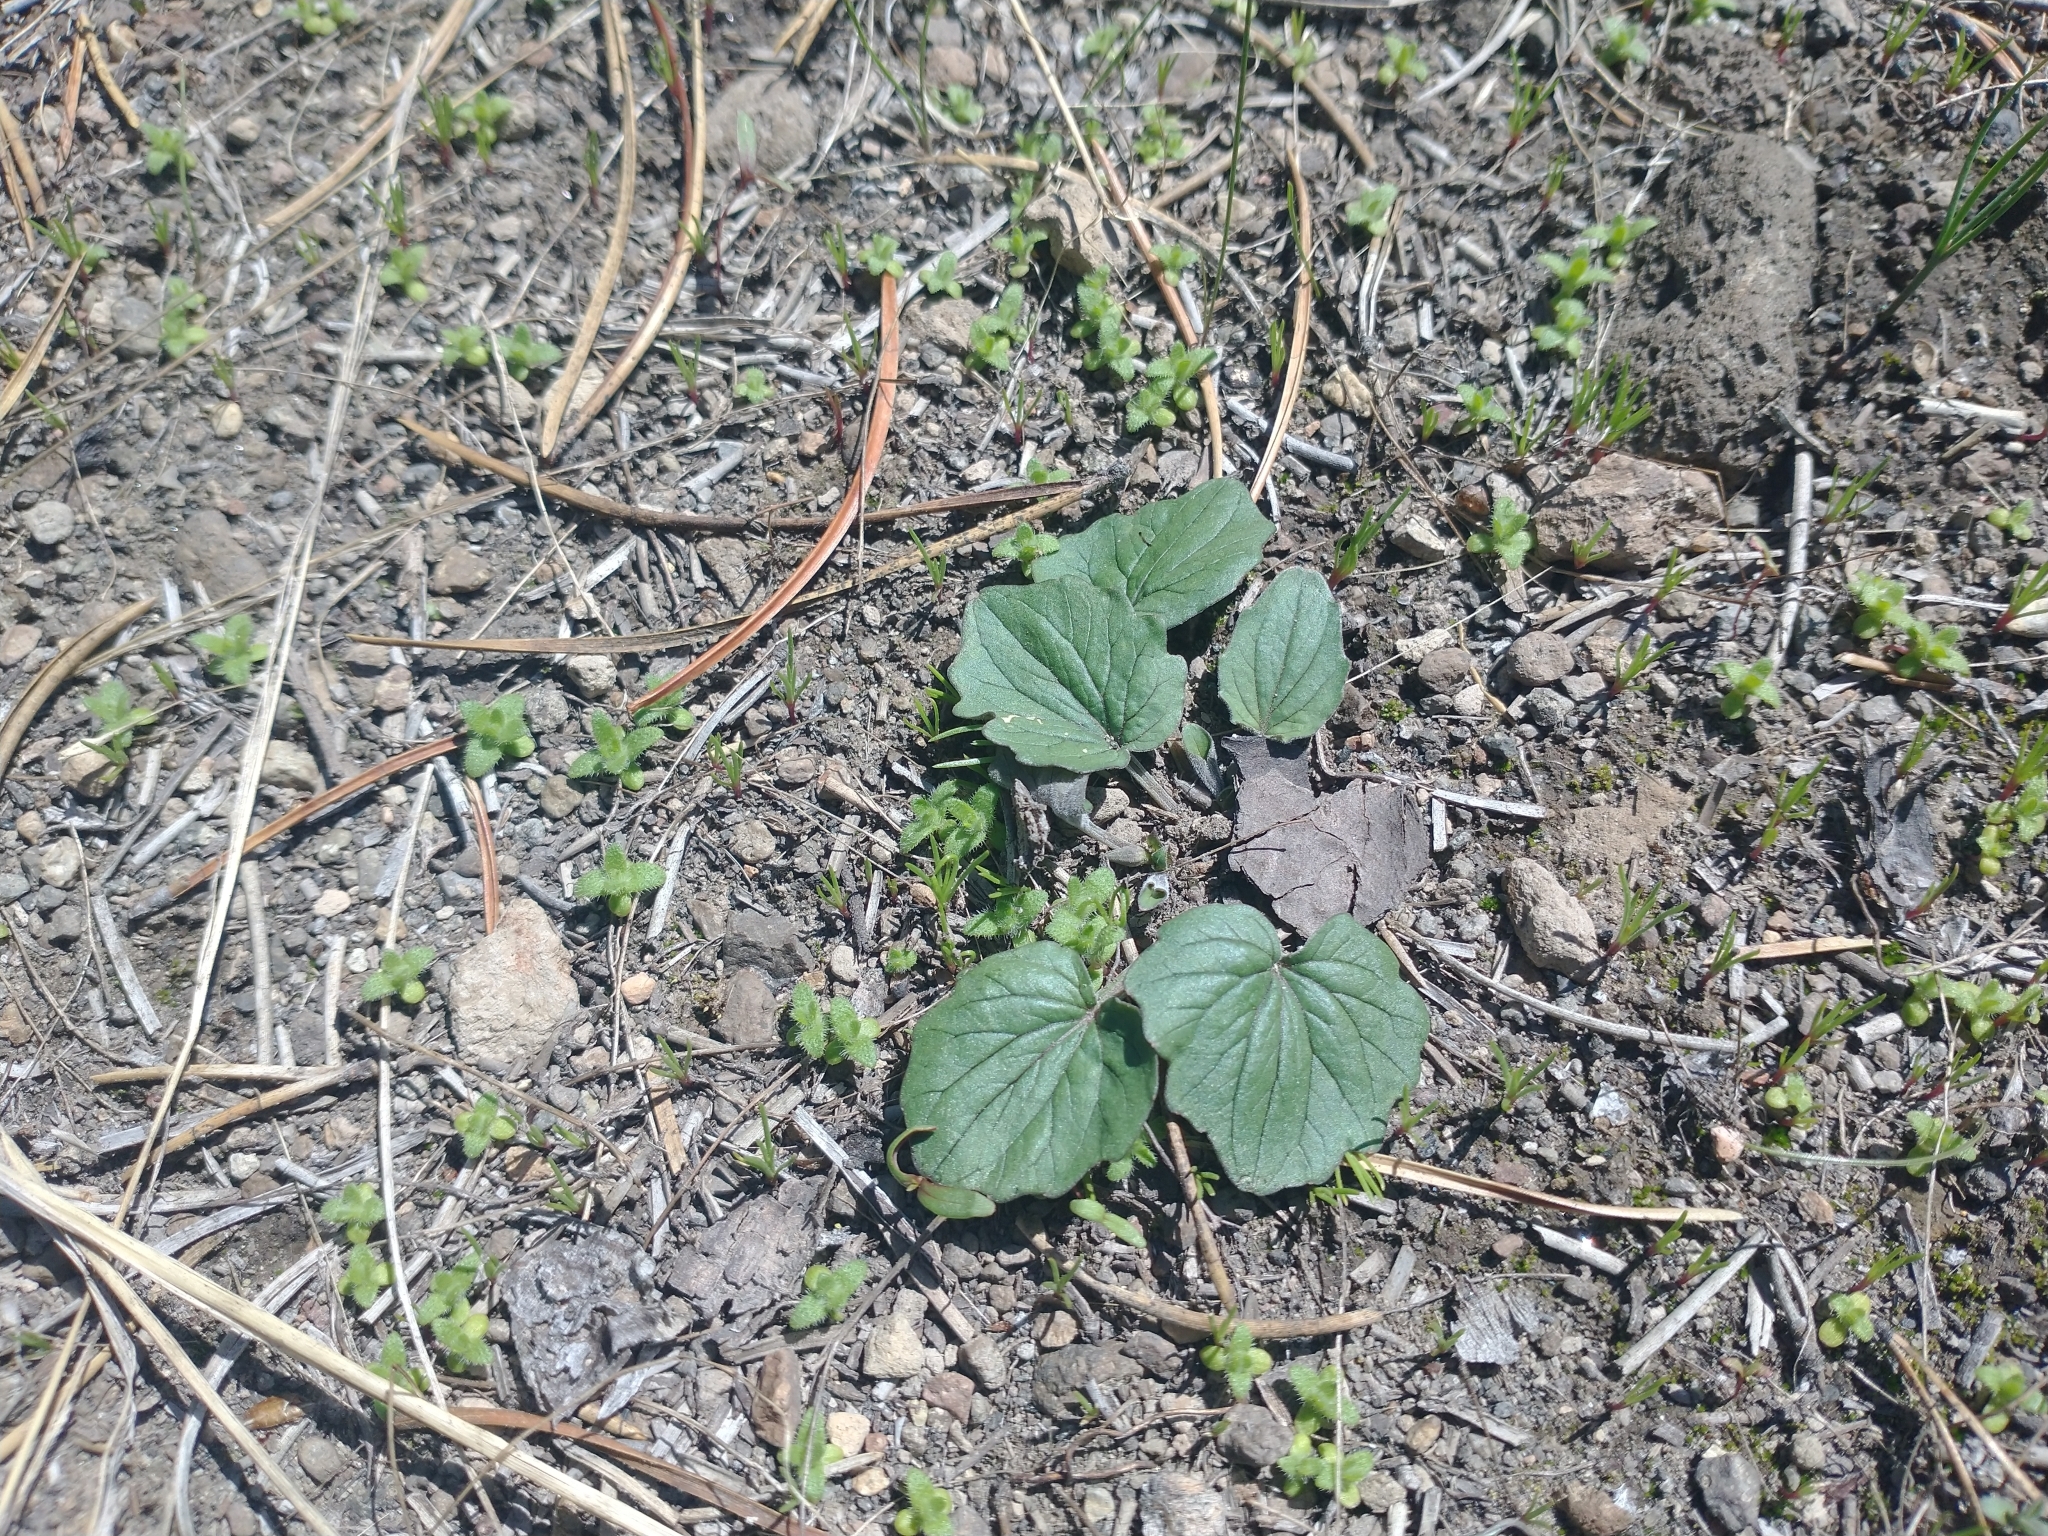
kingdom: Plantae
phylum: Tracheophyta
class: Magnoliopsida
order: Malpighiales
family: Violaceae
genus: Viola
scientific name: Viola purpurea
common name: Pine violet
